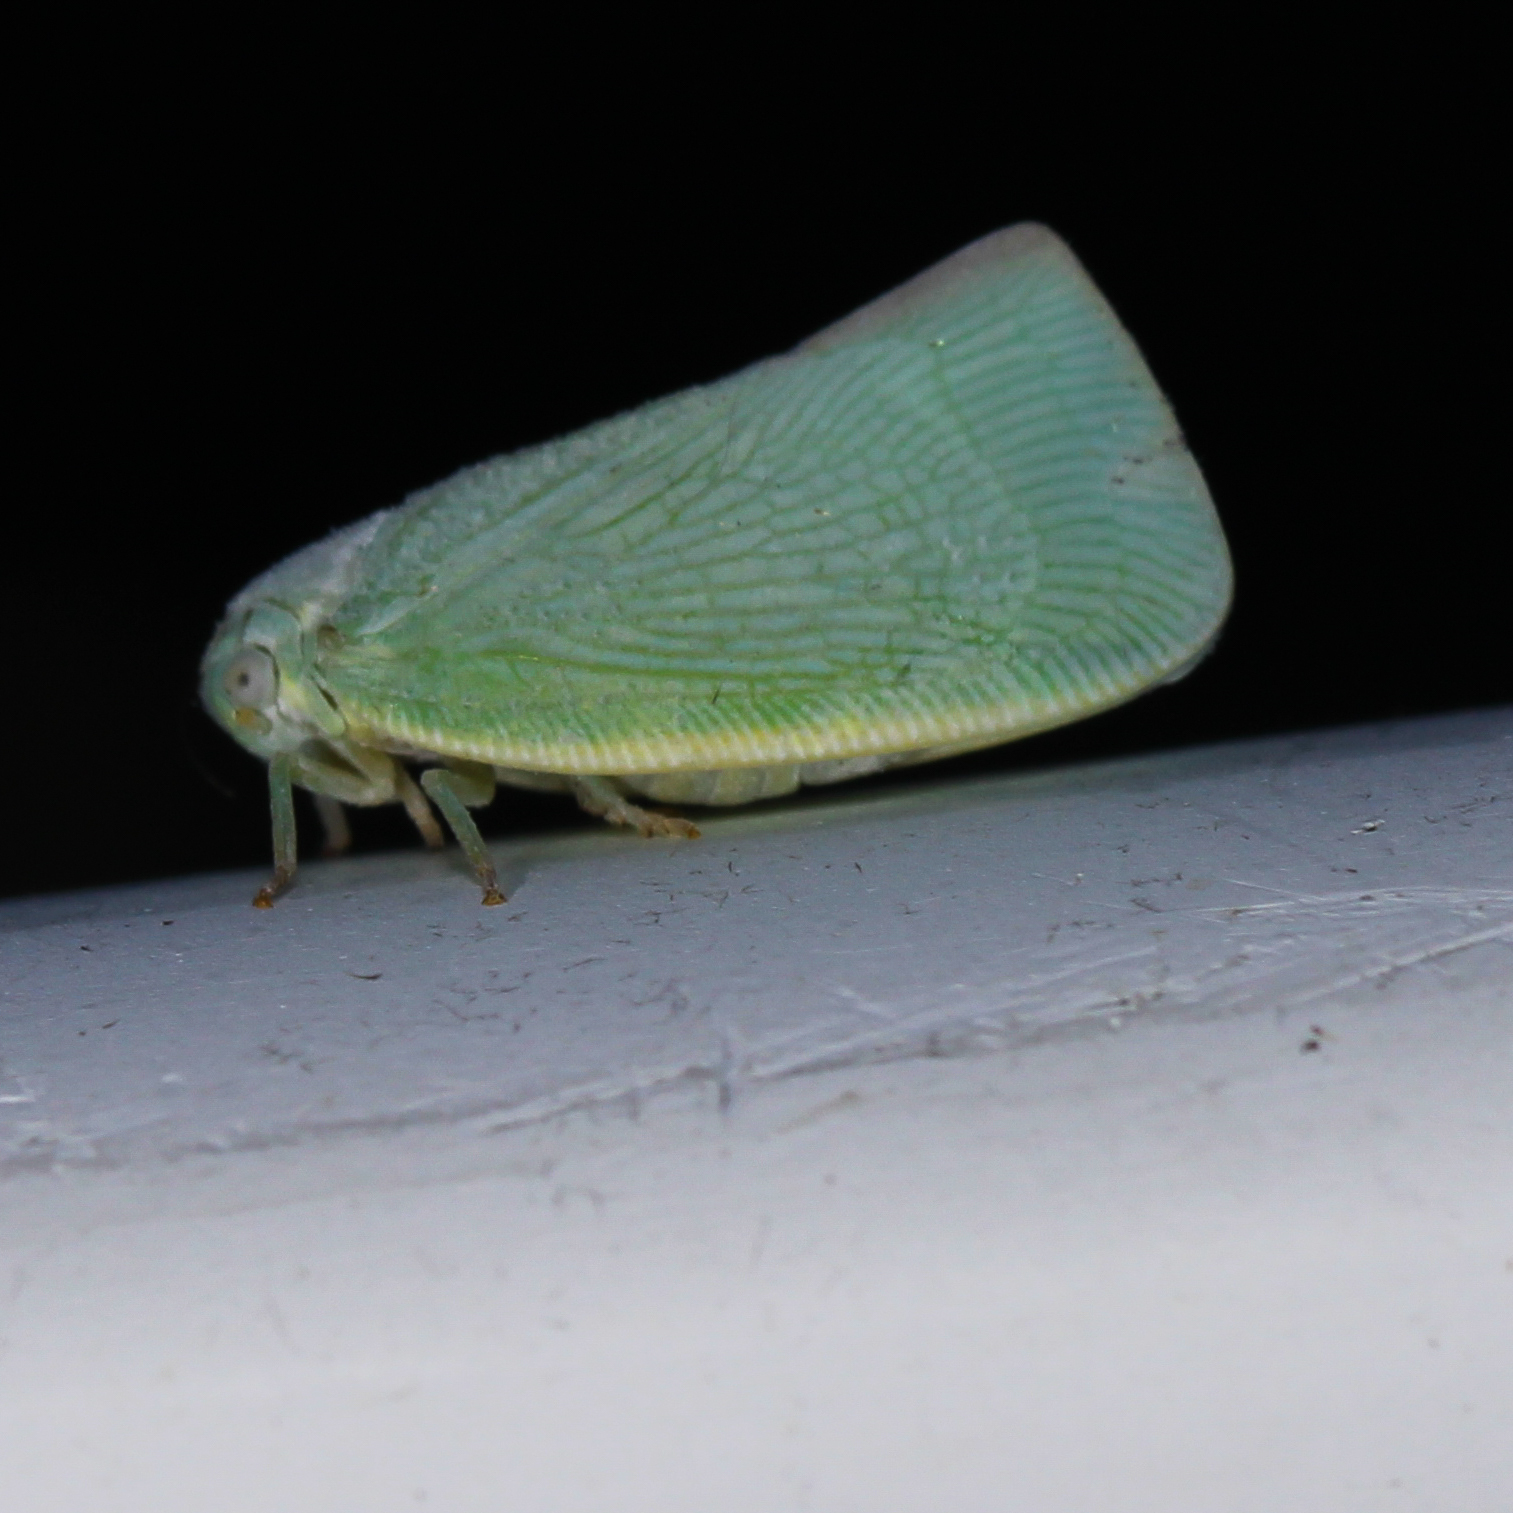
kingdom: Animalia
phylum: Arthropoda
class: Insecta
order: Hemiptera
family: Flatidae
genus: Flatormenis
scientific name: Flatormenis proxima
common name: Northern flatid planthopper
